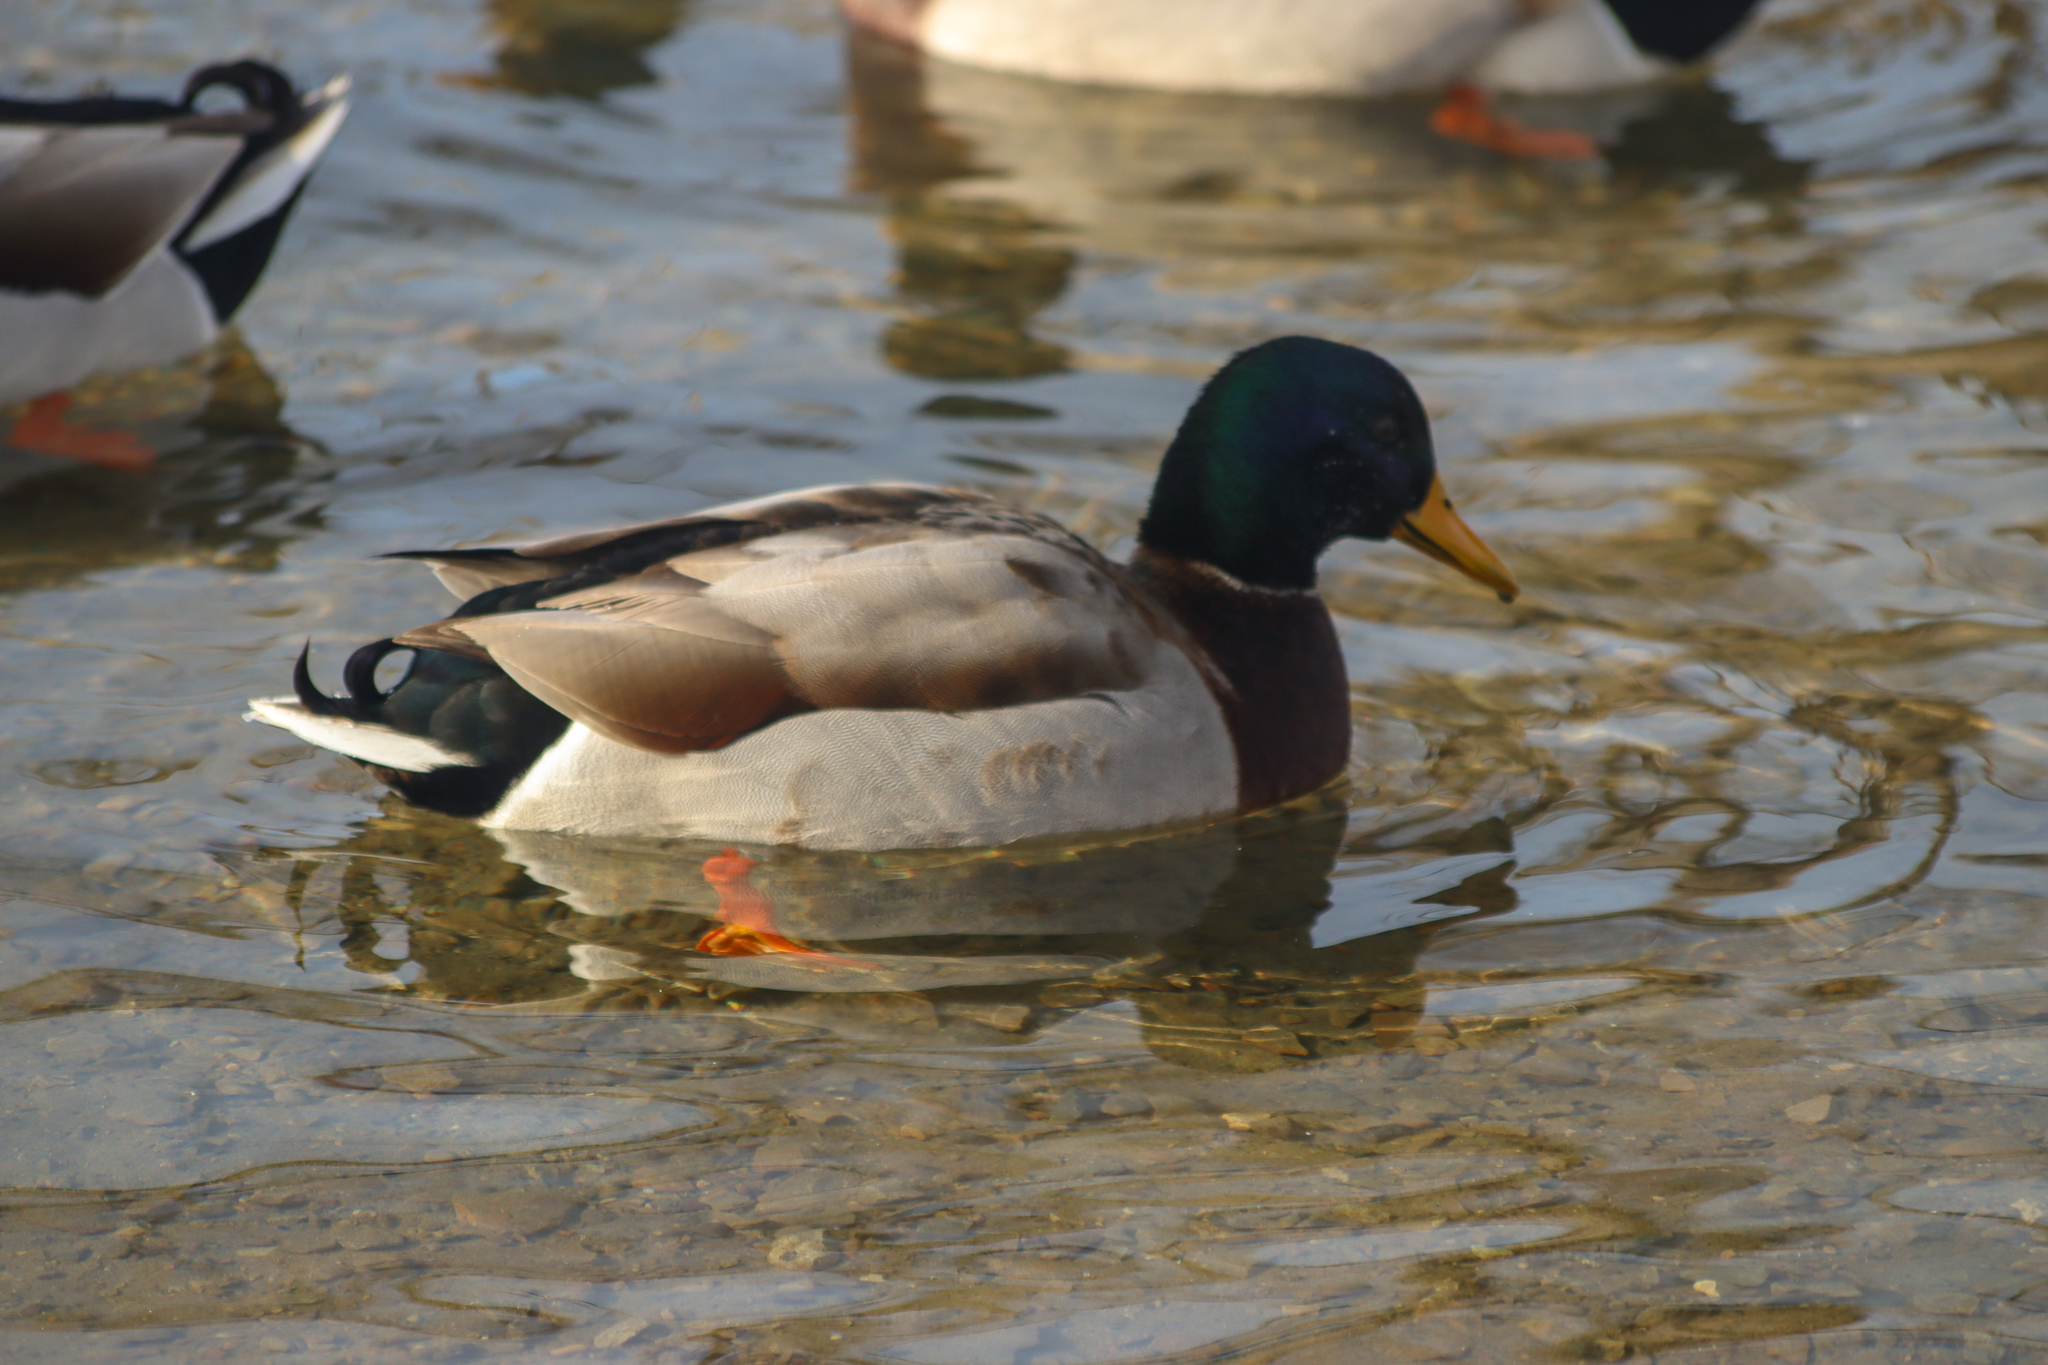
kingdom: Animalia
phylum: Chordata
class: Aves
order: Anseriformes
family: Anatidae
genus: Anas
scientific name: Anas platyrhynchos
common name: Mallard
